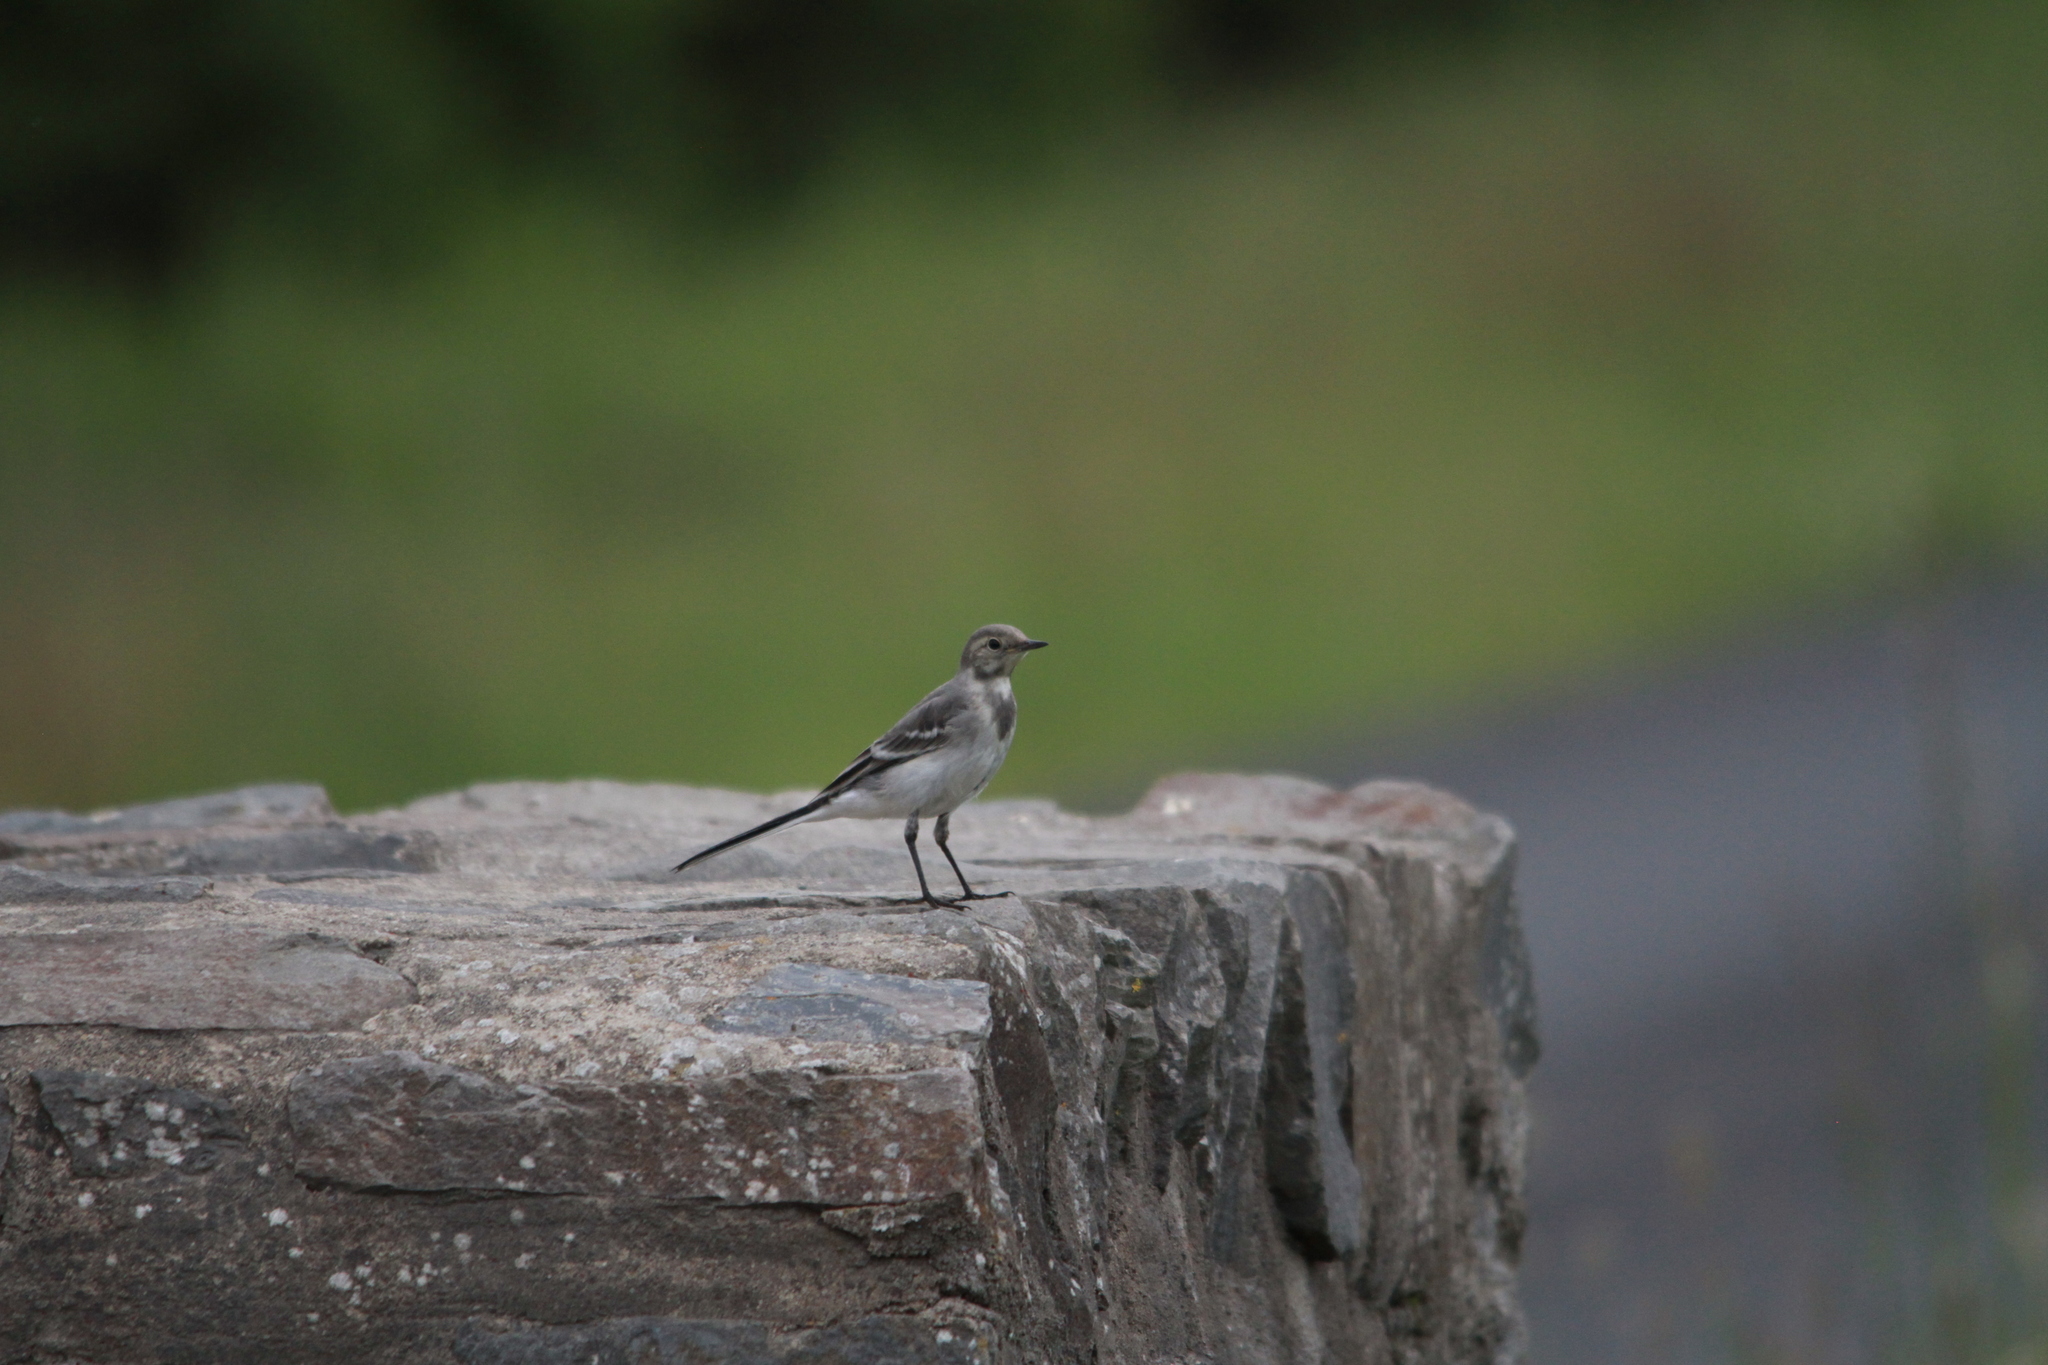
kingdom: Animalia
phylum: Chordata
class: Aves
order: Passeriformes
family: Motacillidae
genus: Motacilla
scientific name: Motacilla alba
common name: White wagtail
